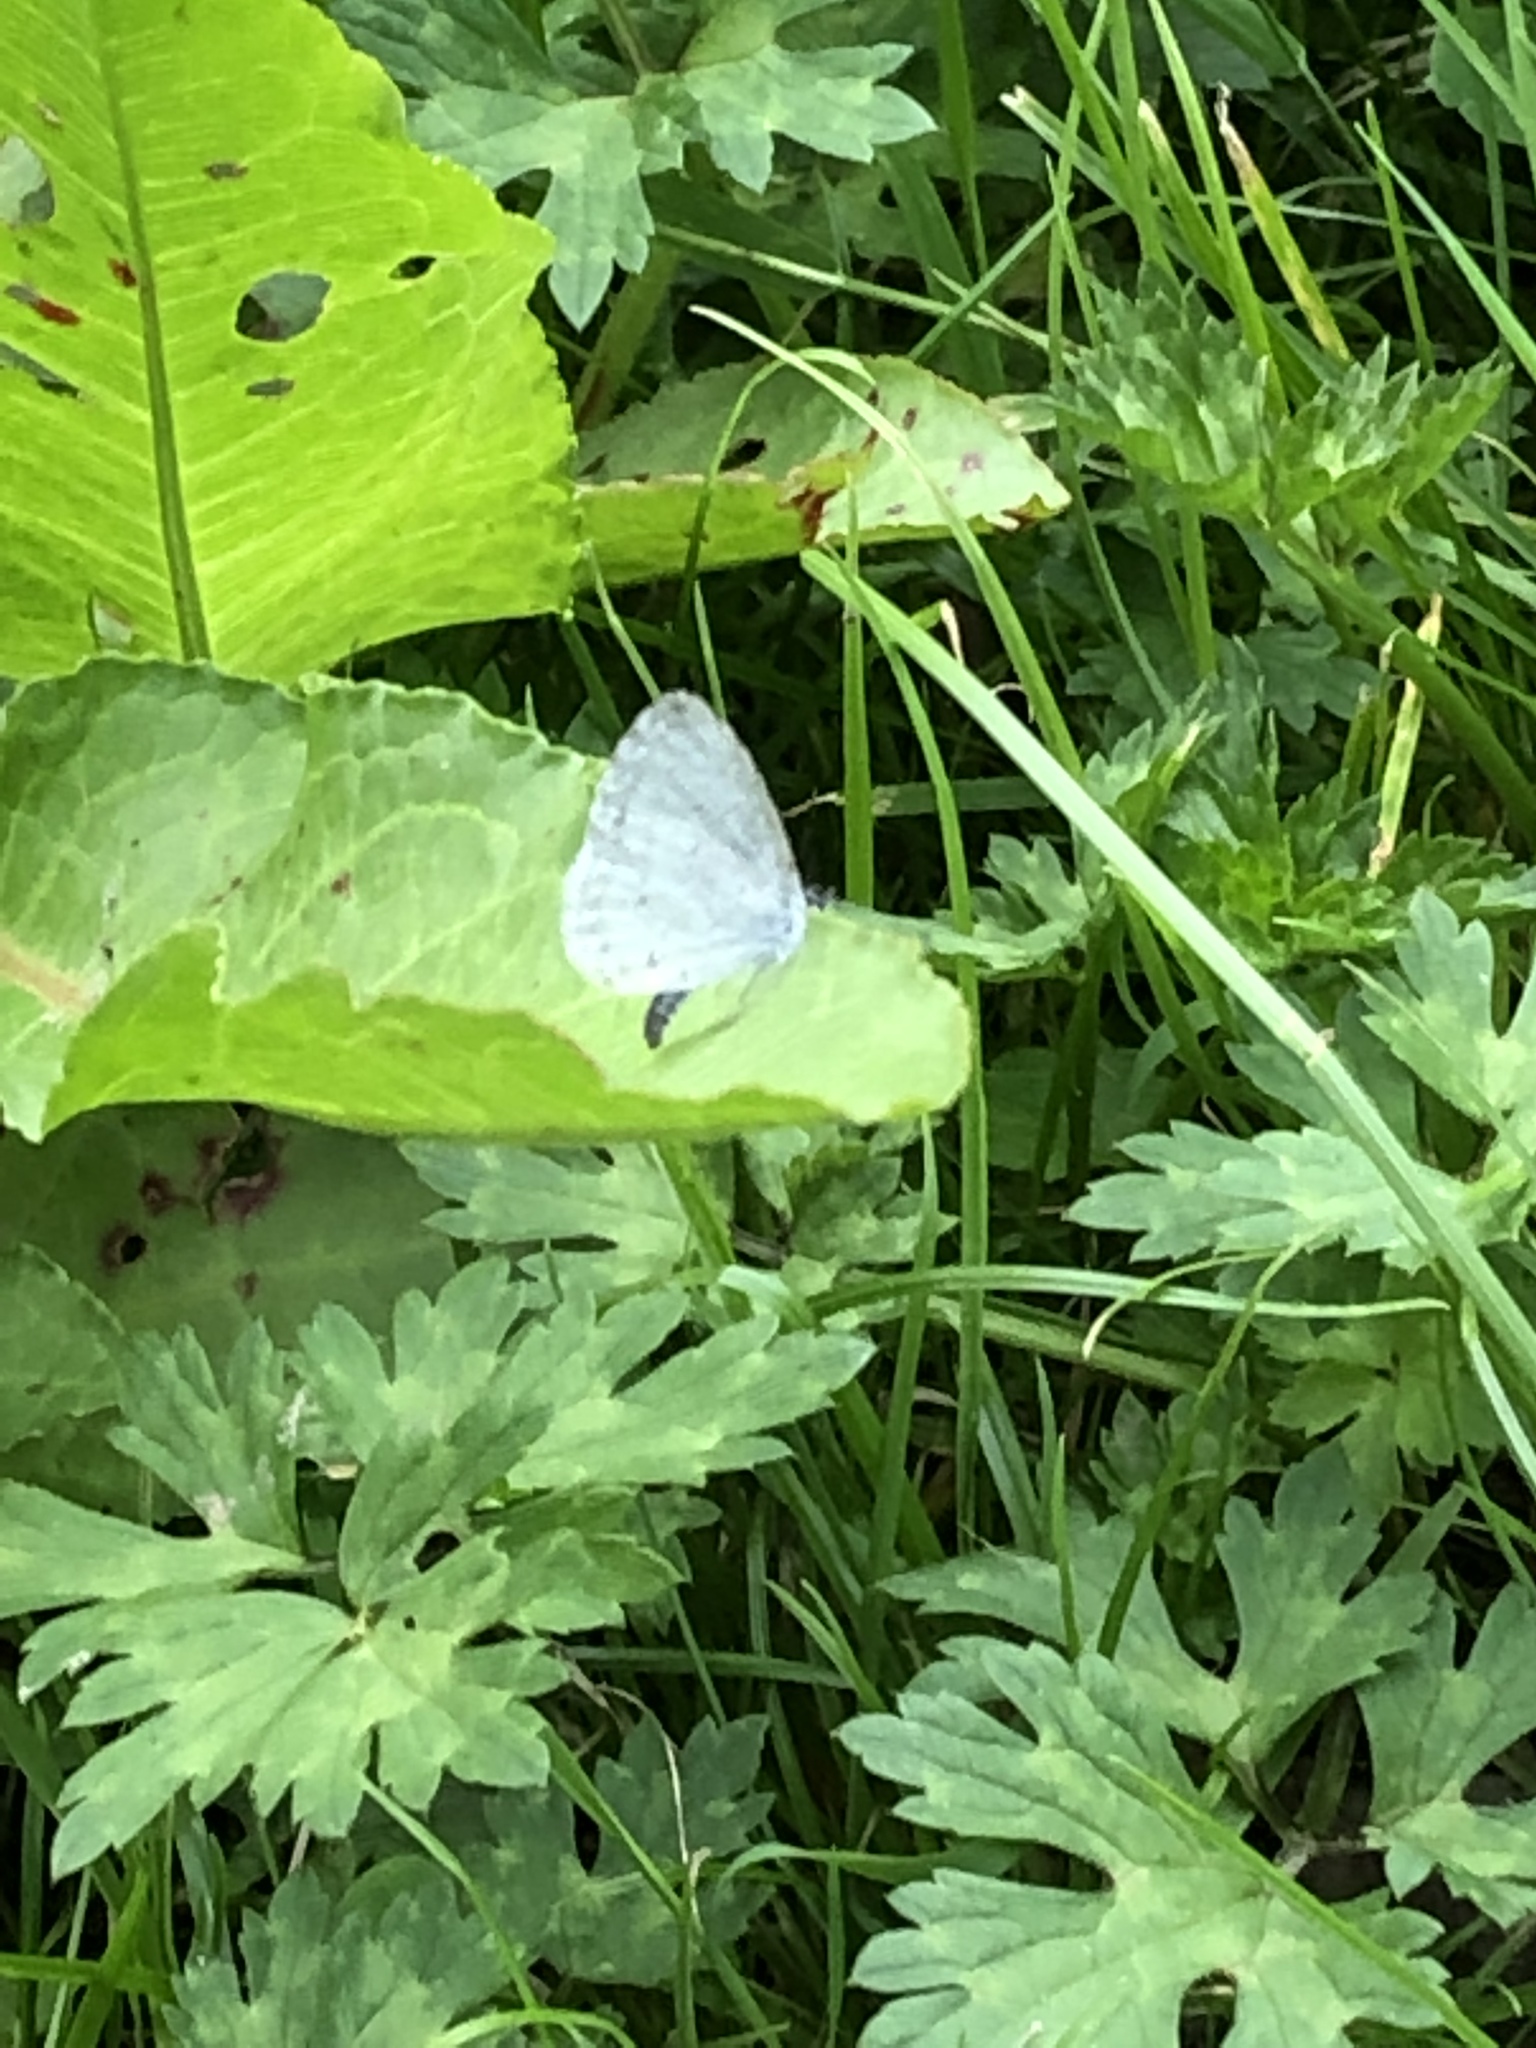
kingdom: Animalia
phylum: Arthropoda
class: Insecta
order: Lepidoptera
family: Lycaenidae
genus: Cyaniris
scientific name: Cyaniris neglecta
